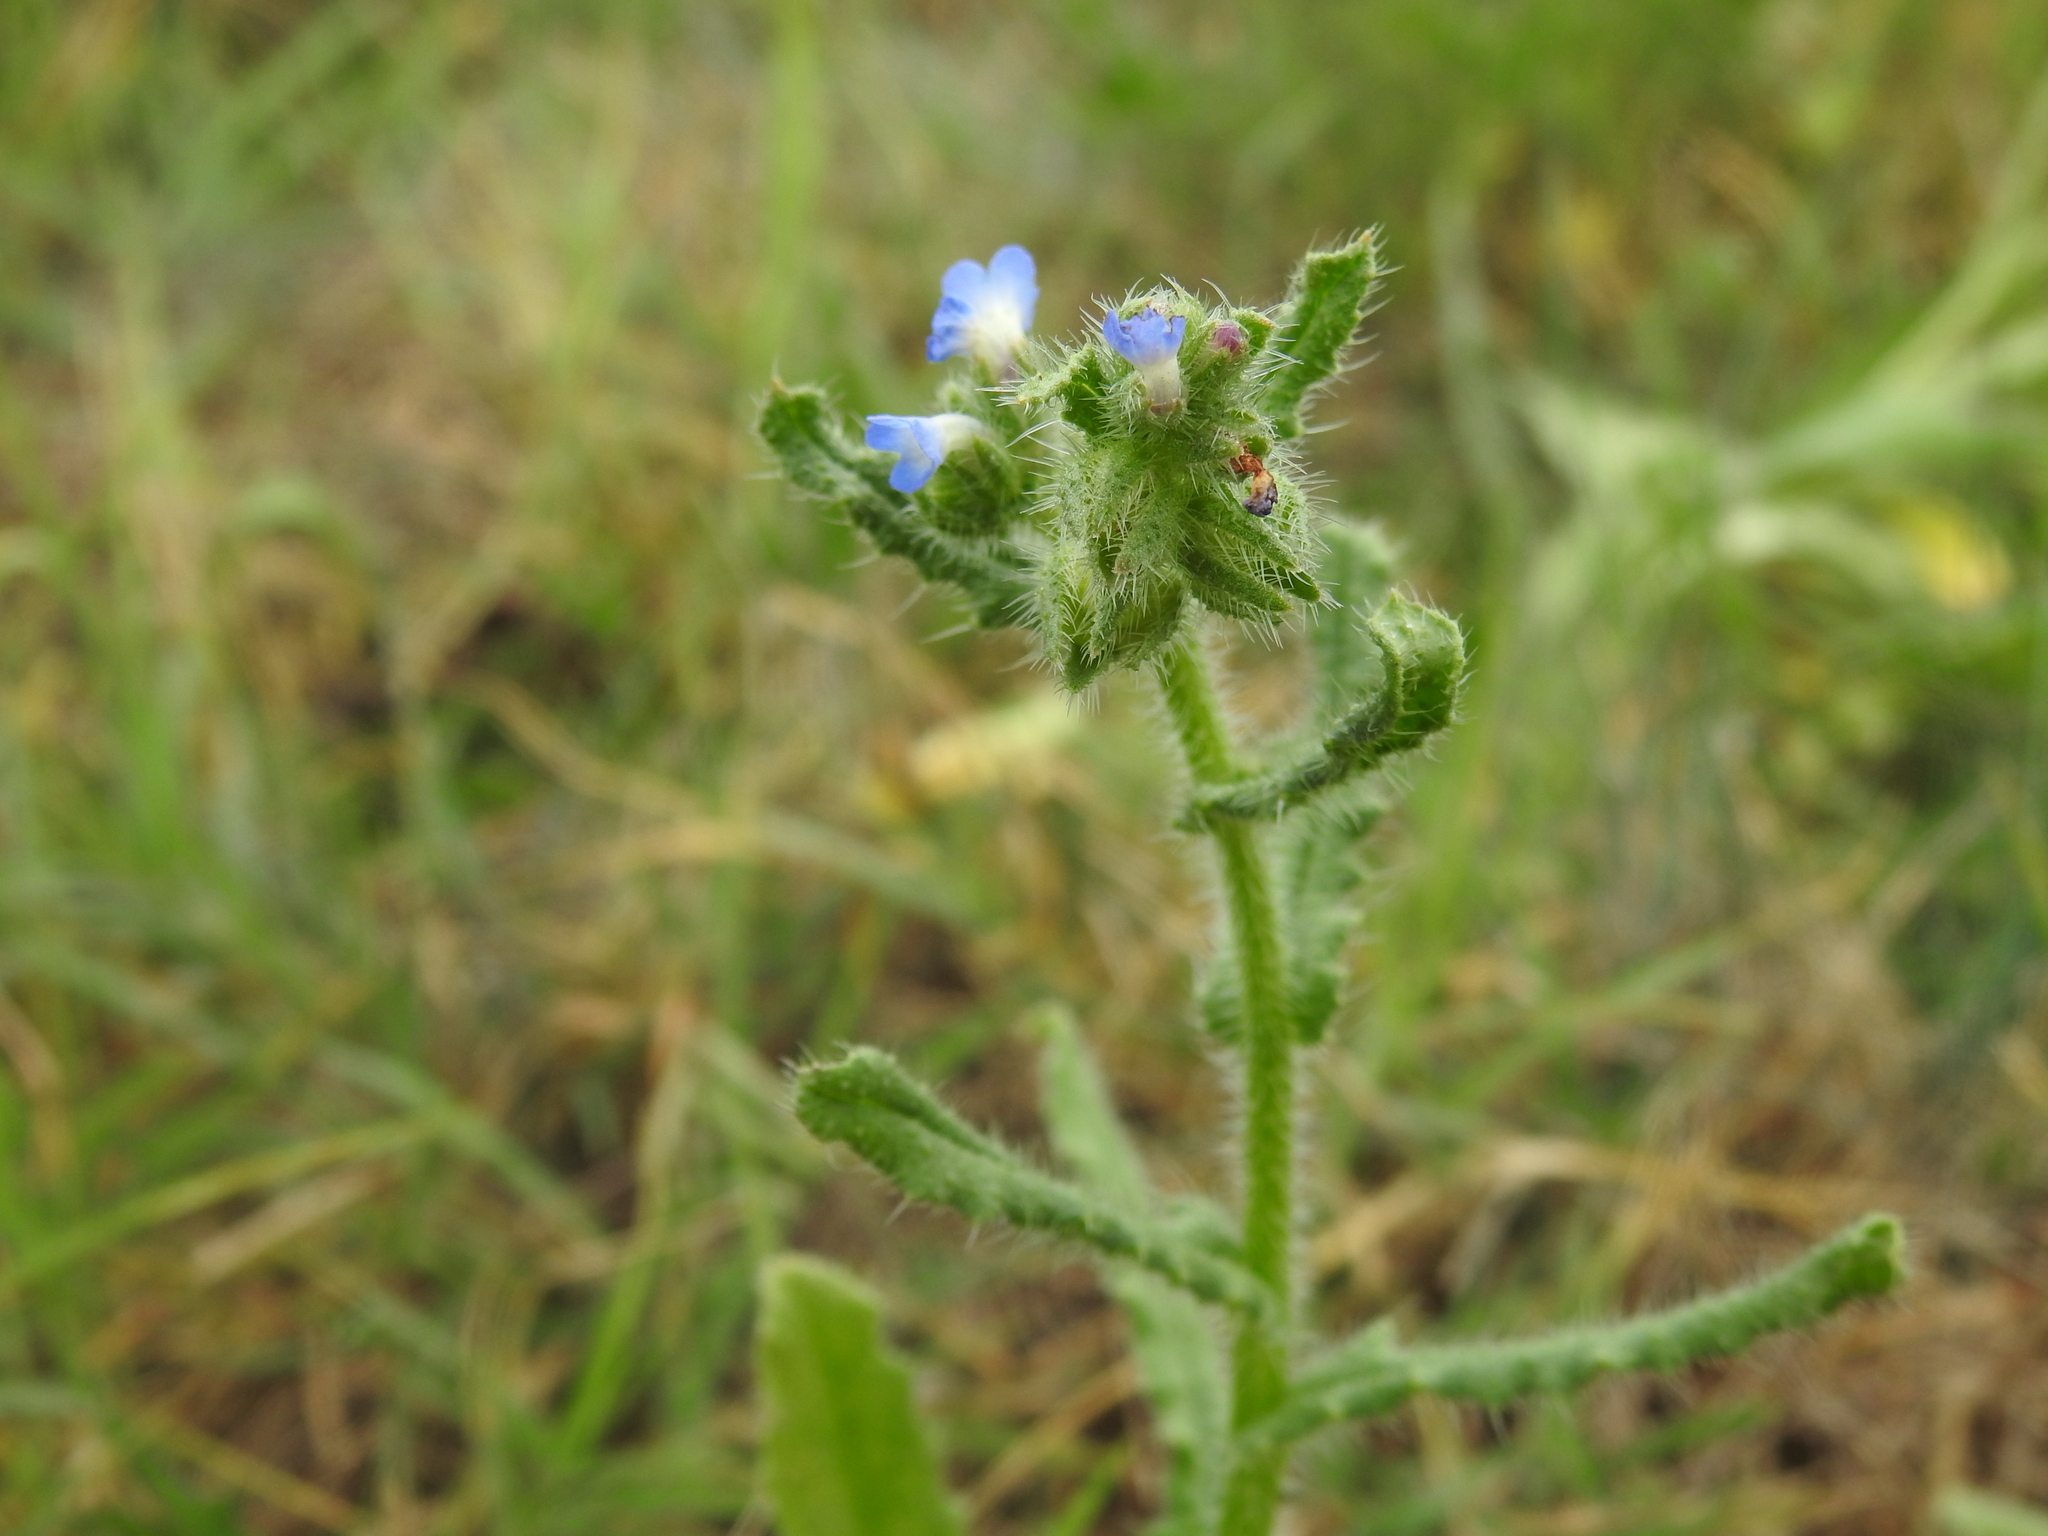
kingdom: Plantae
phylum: Tracheophyta
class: Magnoliopsida
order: Boraginales
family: Boraginaceae
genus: Lycopsis
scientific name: Lycopsis arvensis
